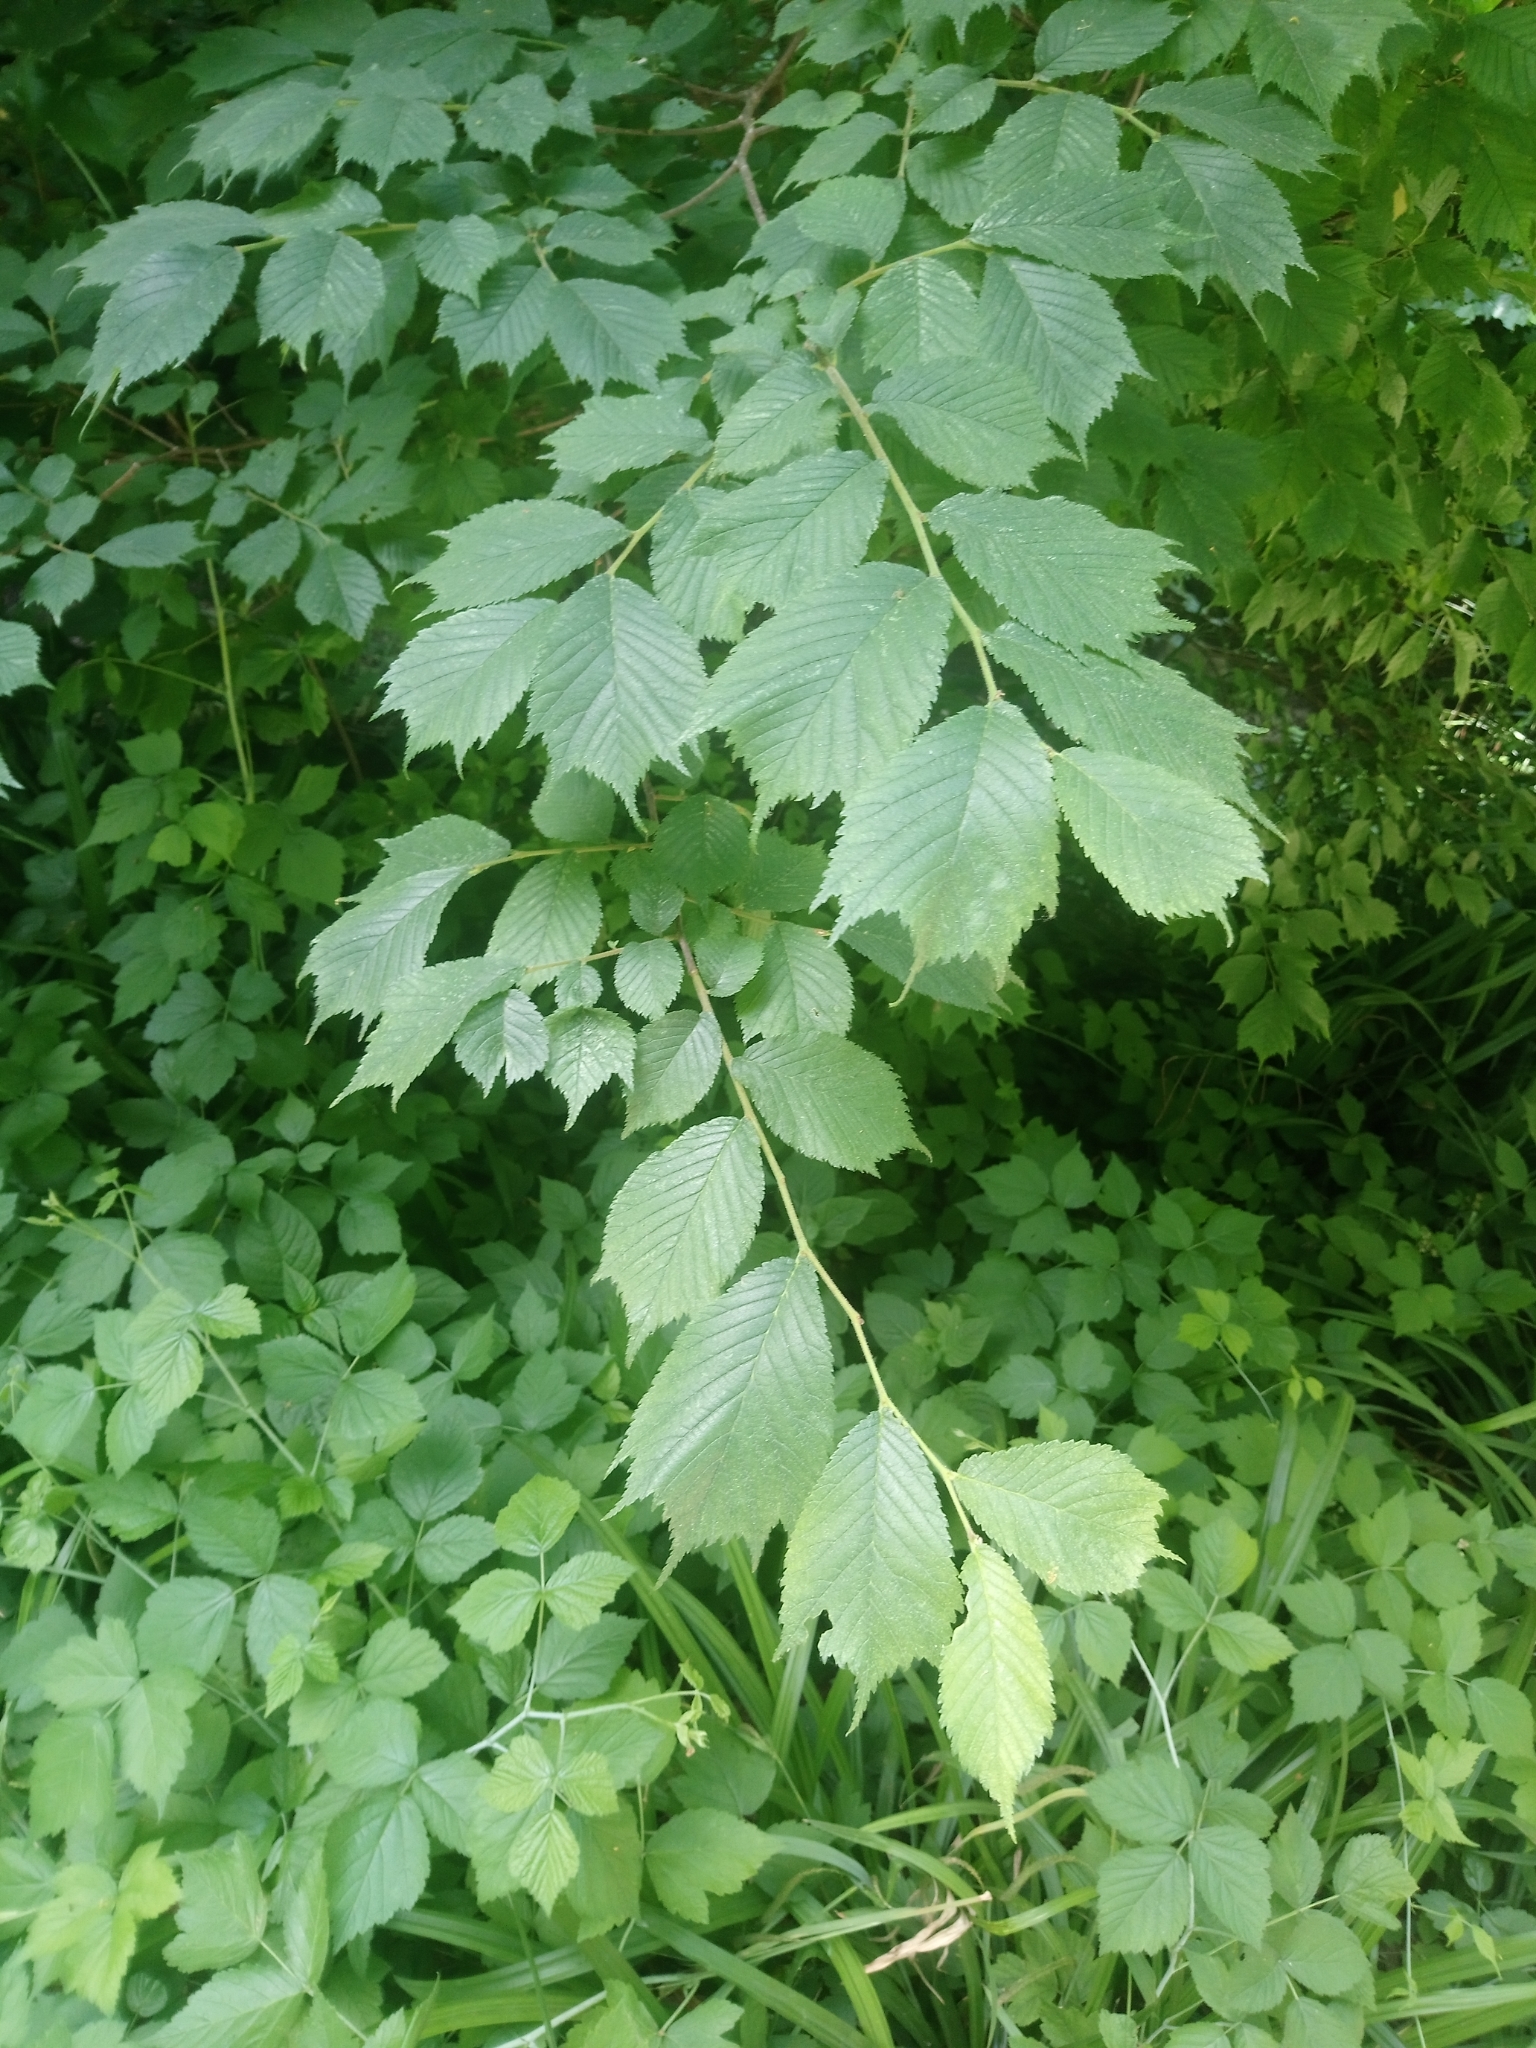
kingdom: Plantae
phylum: Tracheophyta
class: Magnoliopsida
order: Rosales
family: Ulmaceae
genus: Ulmus
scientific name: Ulmus glabra
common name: Wych elm
